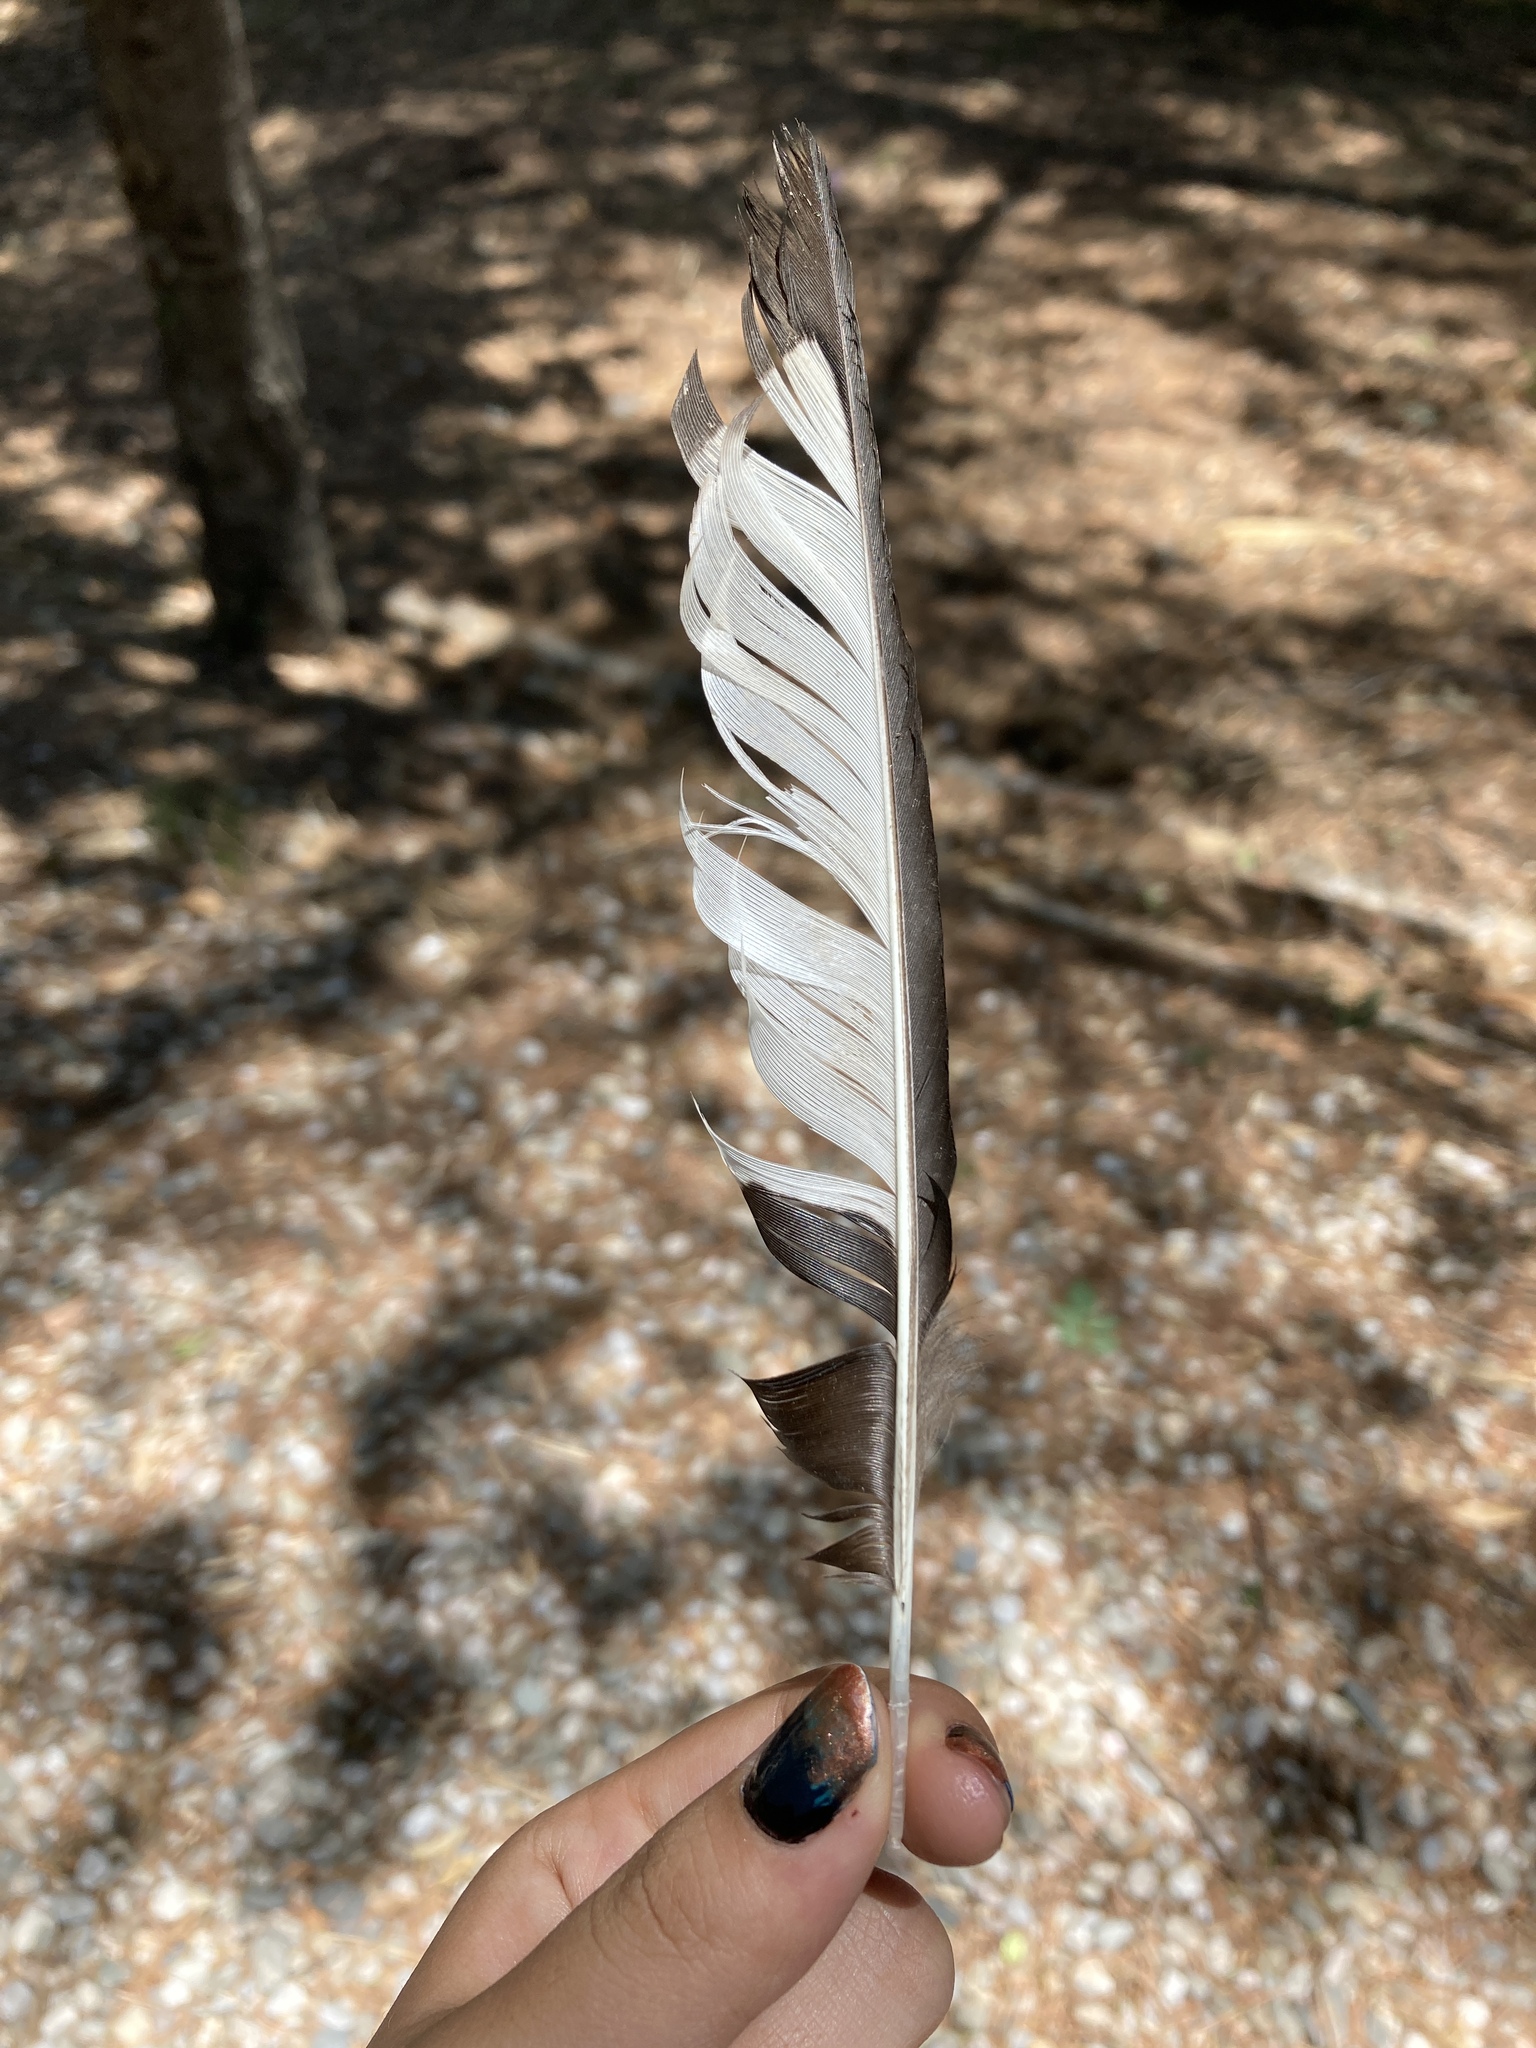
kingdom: Animalia
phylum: Chordata
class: Aves
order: Passeriformes
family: Corvidae
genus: Pica
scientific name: Pica pica
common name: Eurasian magpie
